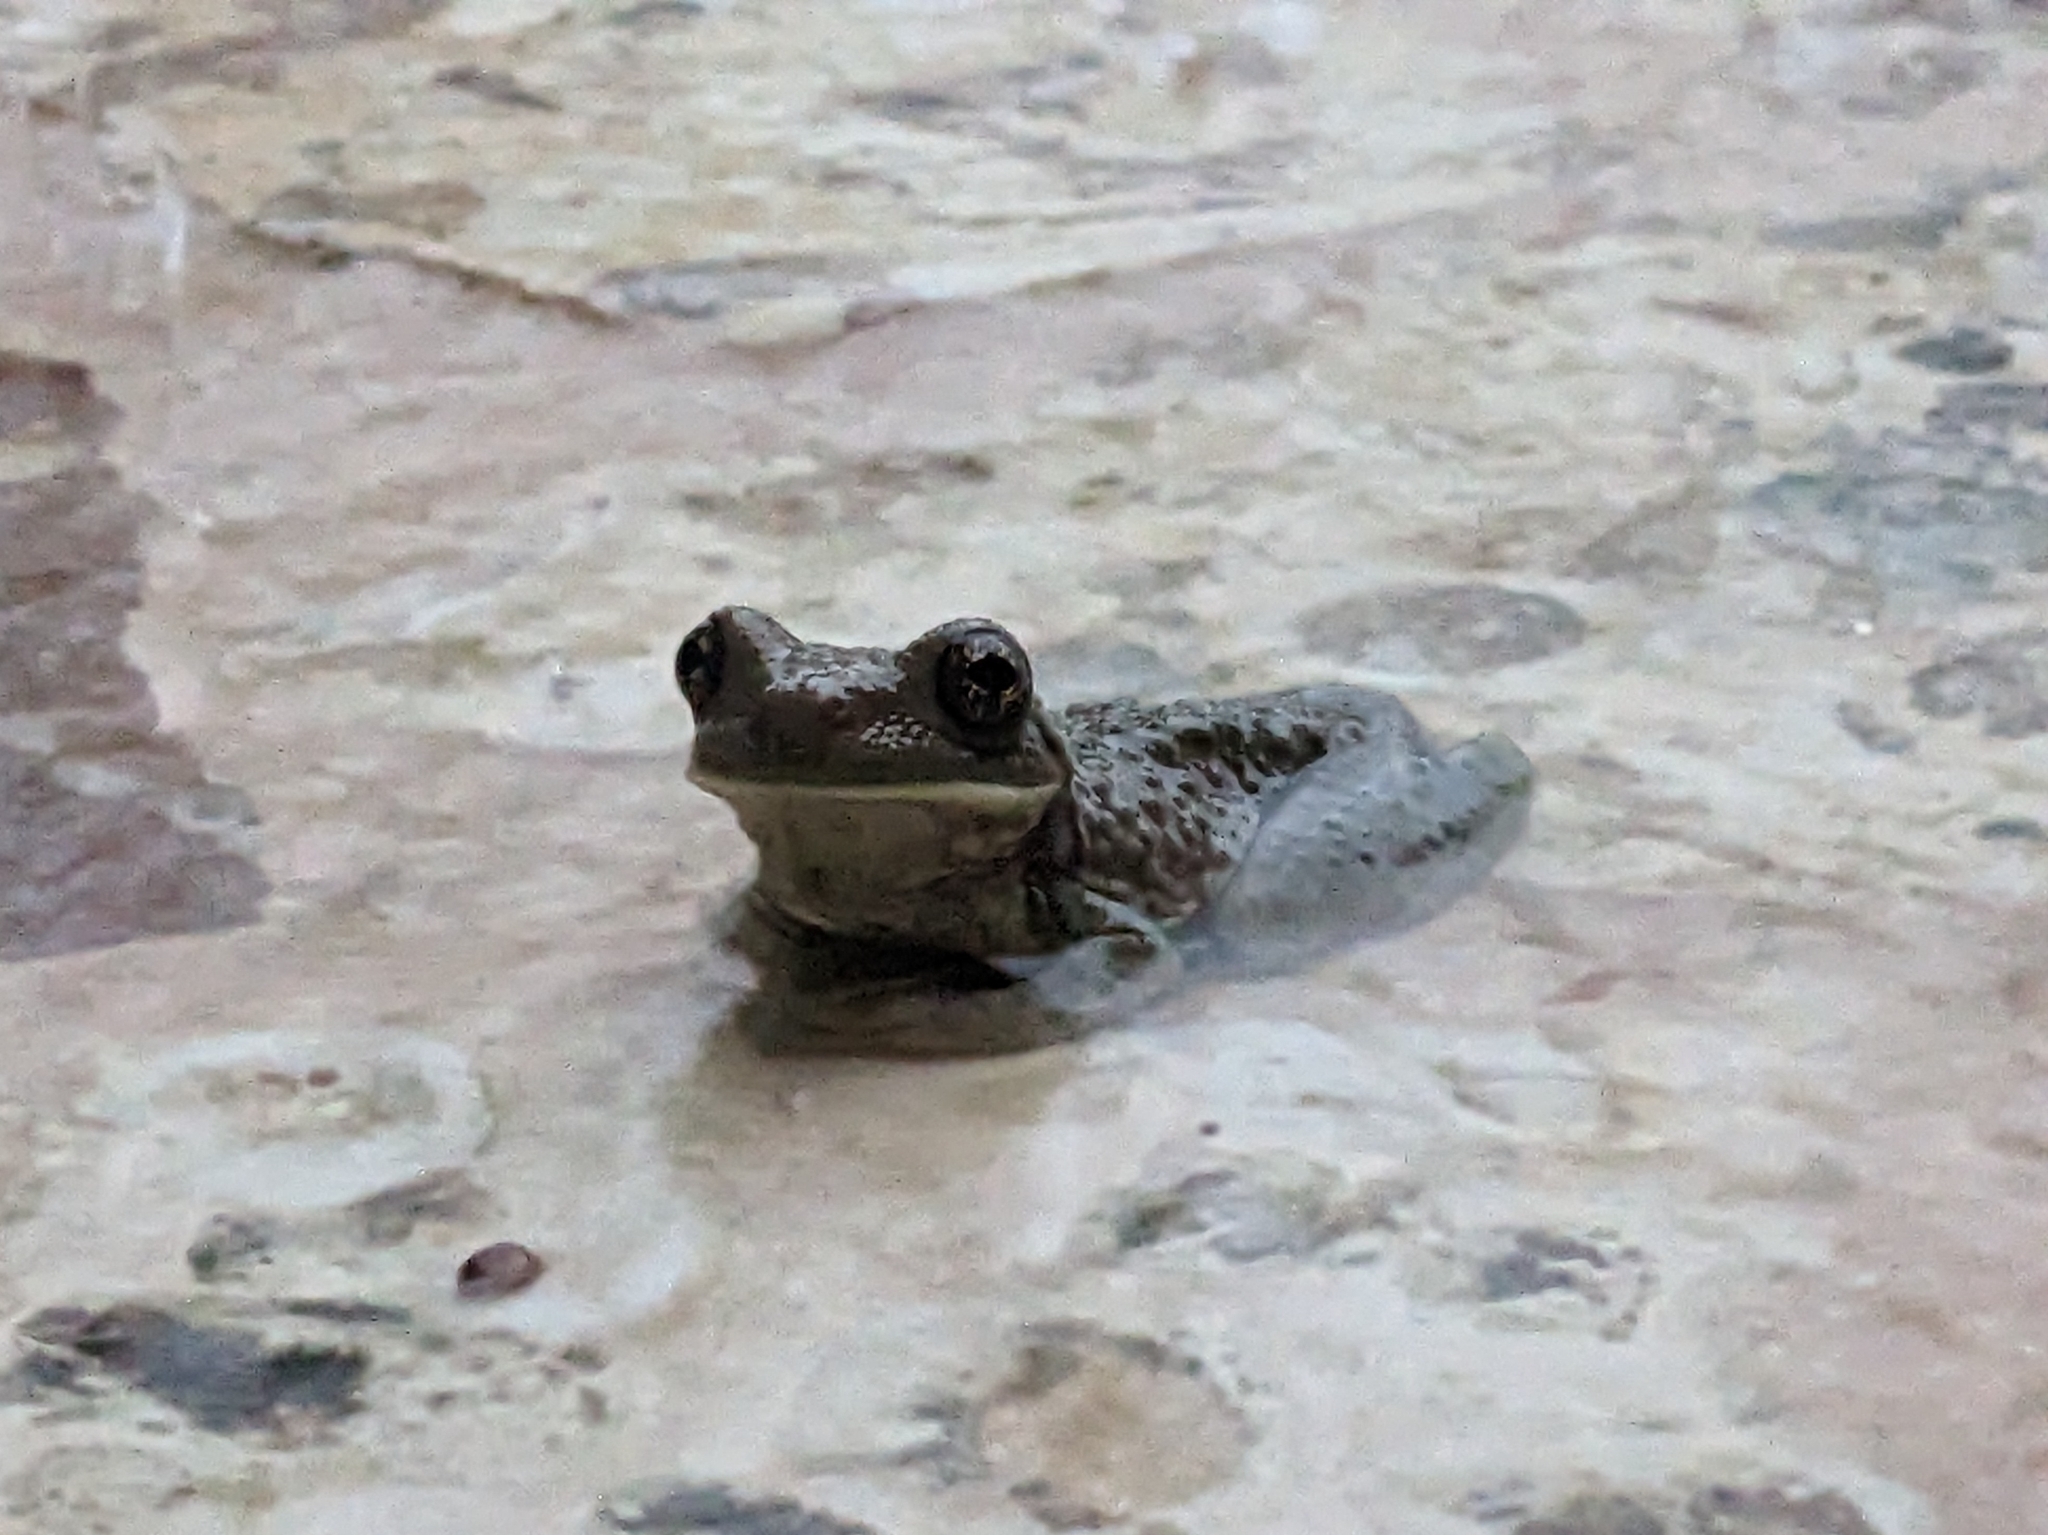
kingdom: Animalia
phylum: Chordata
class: Amphibia
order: Anura
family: Hylidae
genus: Trachycephalus
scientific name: Trachycephalus vermiculatus
